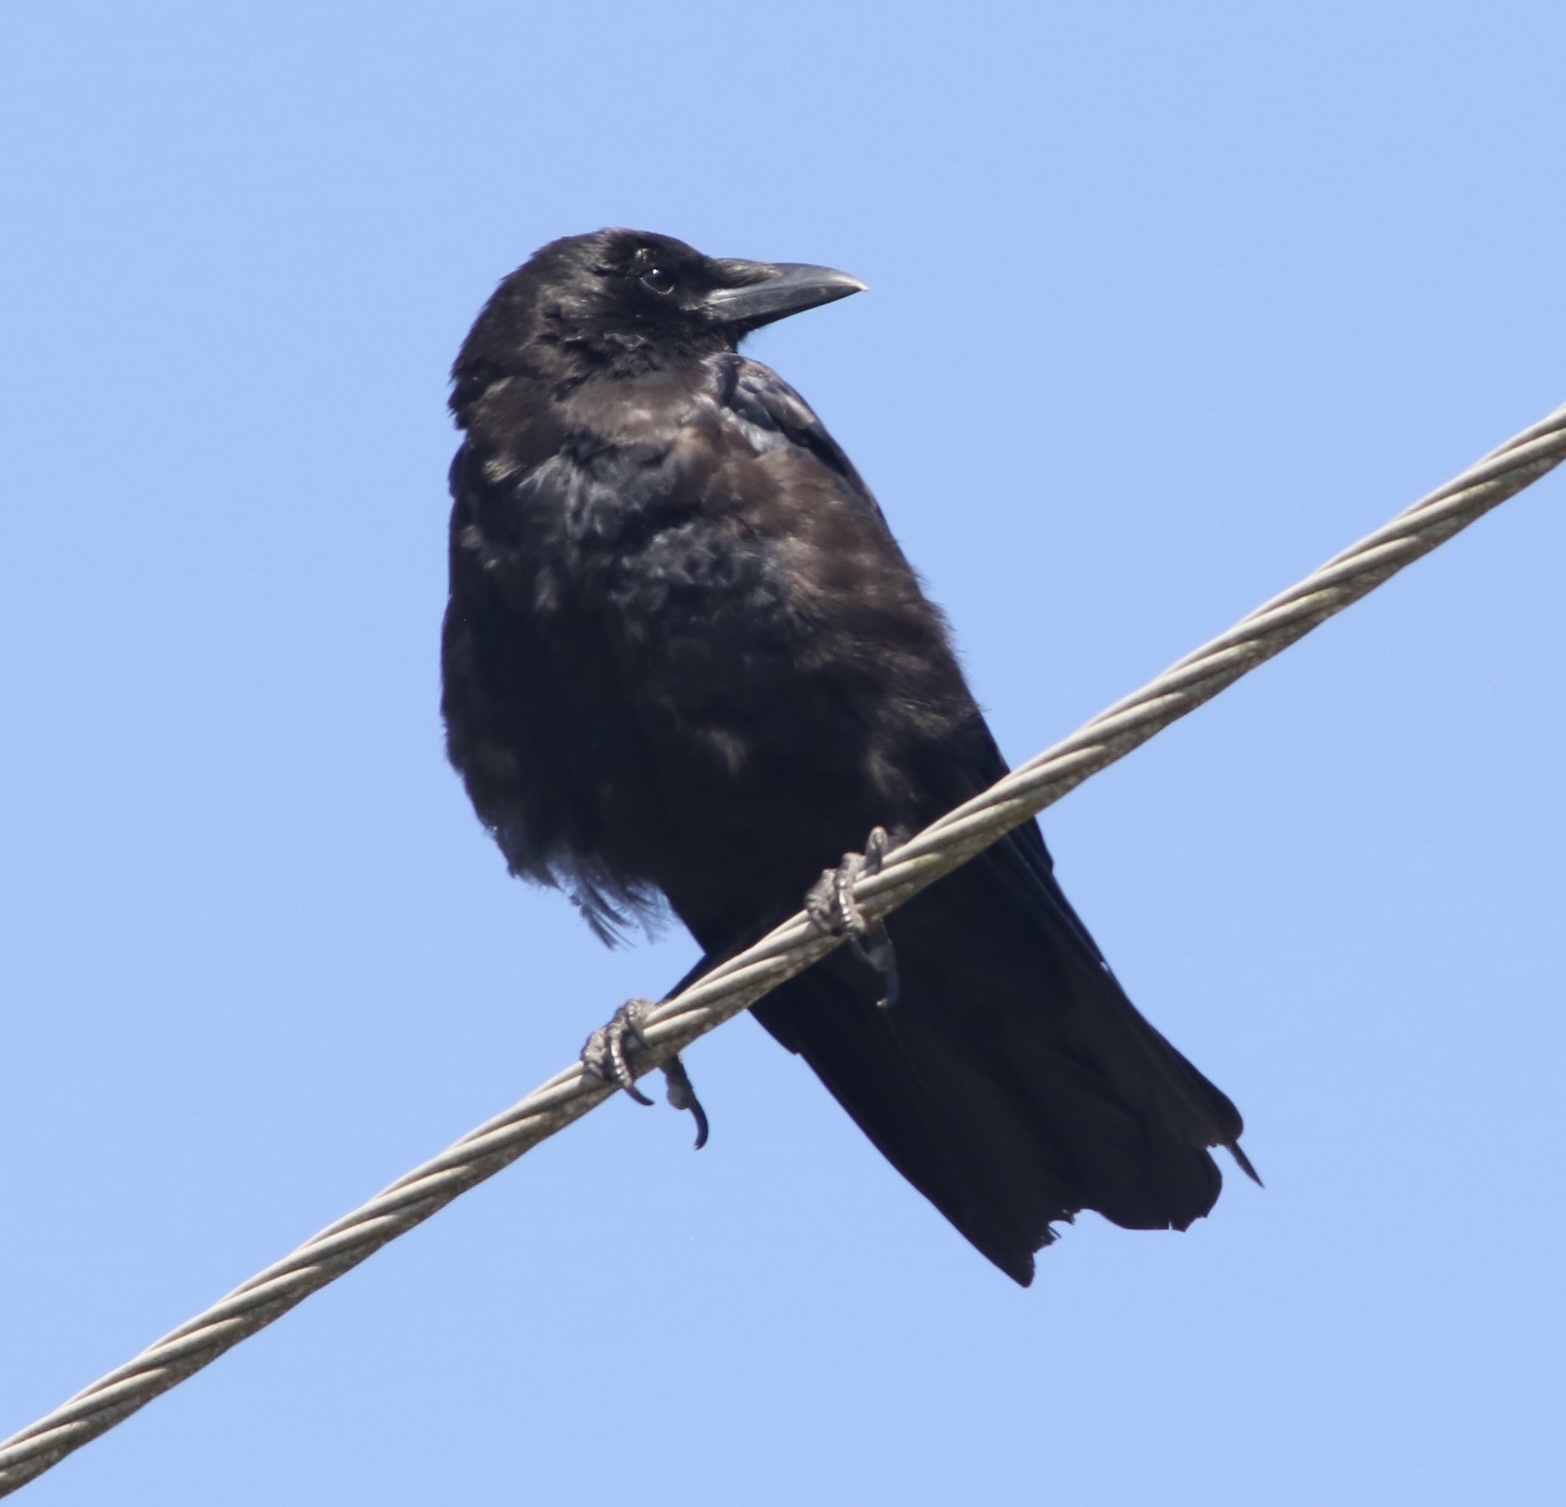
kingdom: Animalia
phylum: Chordata
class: Aves
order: Passeriformes
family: Corvidae
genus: Corvus
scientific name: Corvus brachyrhynchos
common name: American crow
